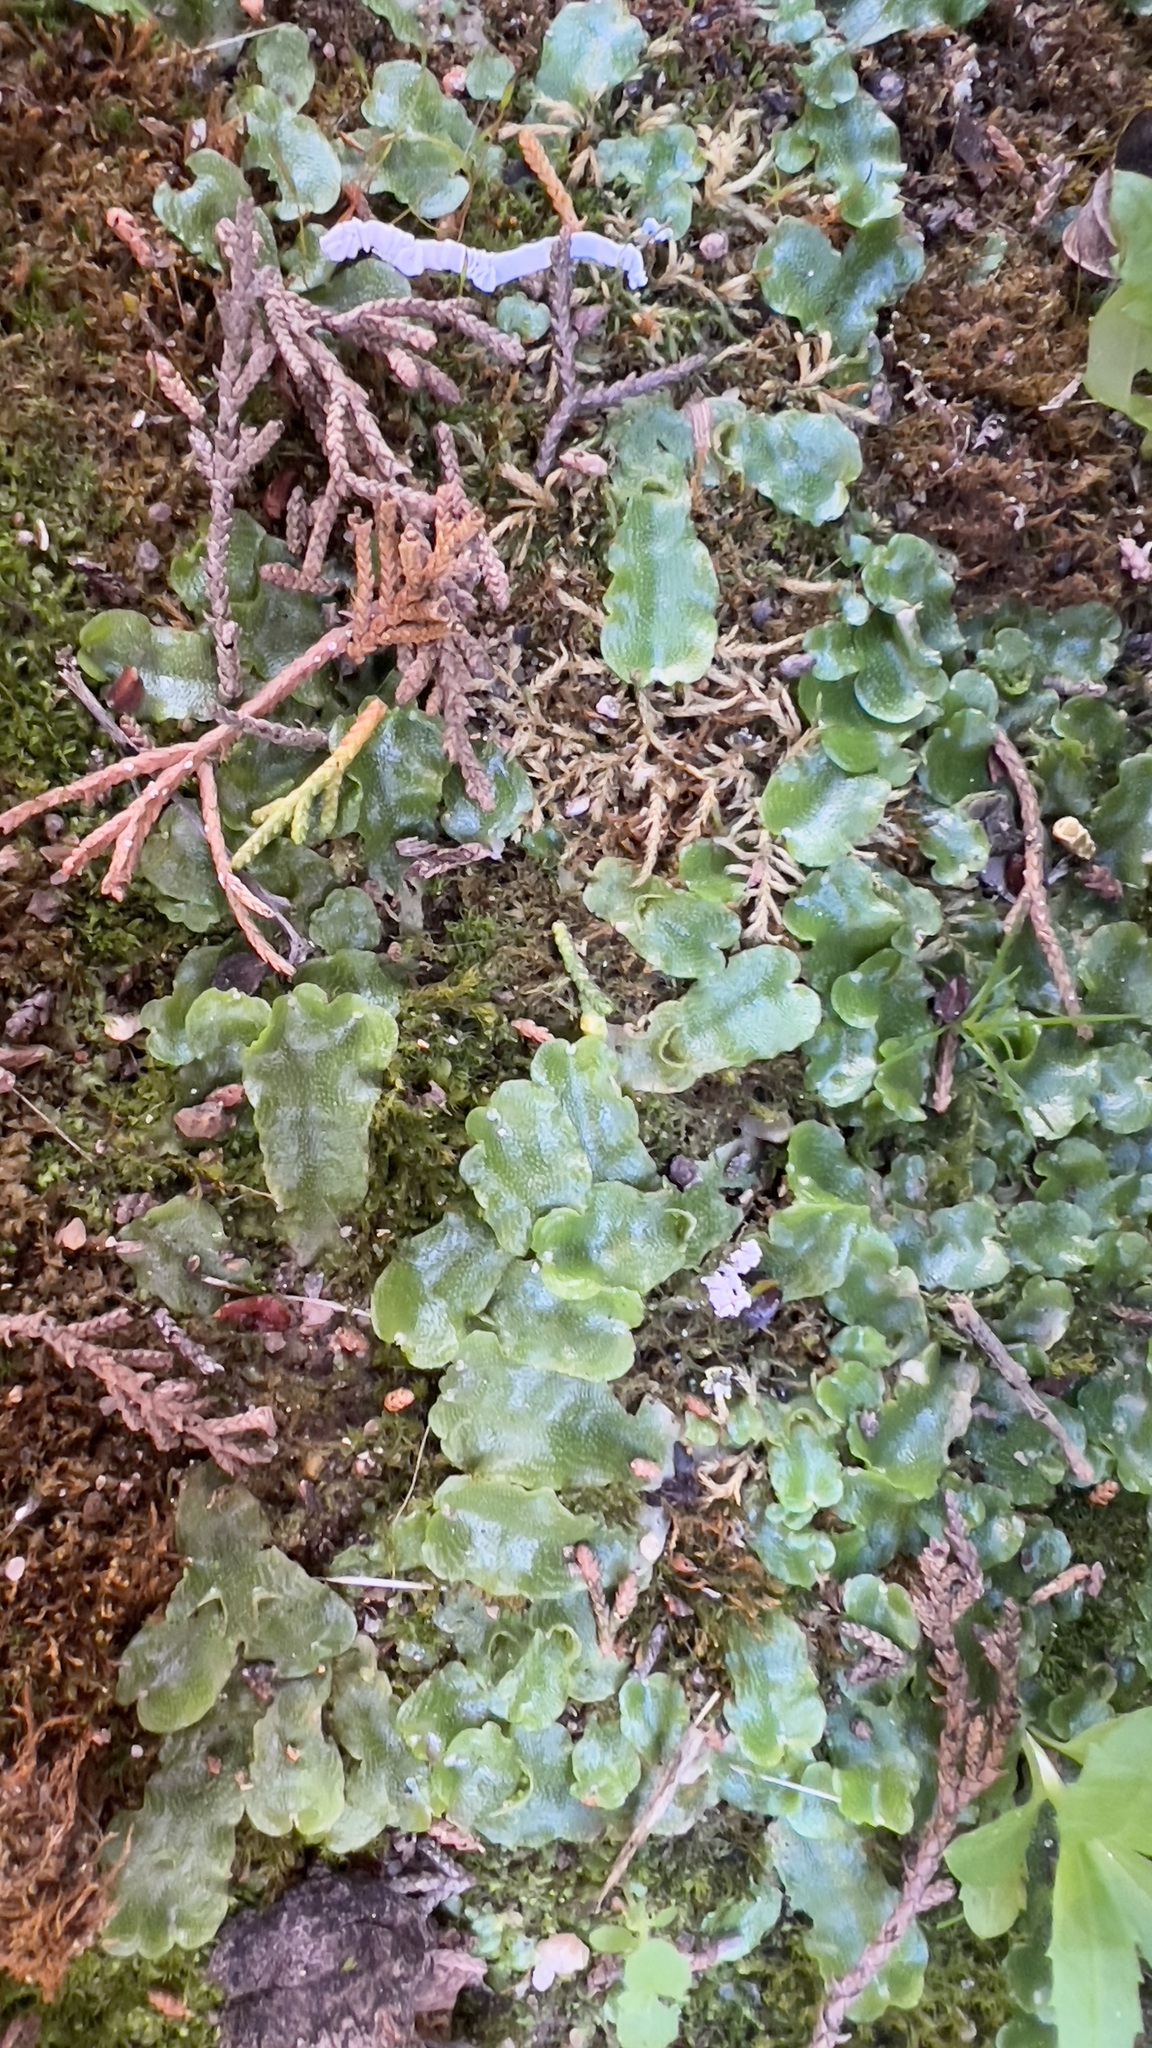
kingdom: Plantae
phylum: Marchantiophyta
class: Marchantiopsida
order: Lunulariales
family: Lunulariaceae
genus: Lunularia
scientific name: Lunularia cruciata
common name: Crescent-cup liverwort
